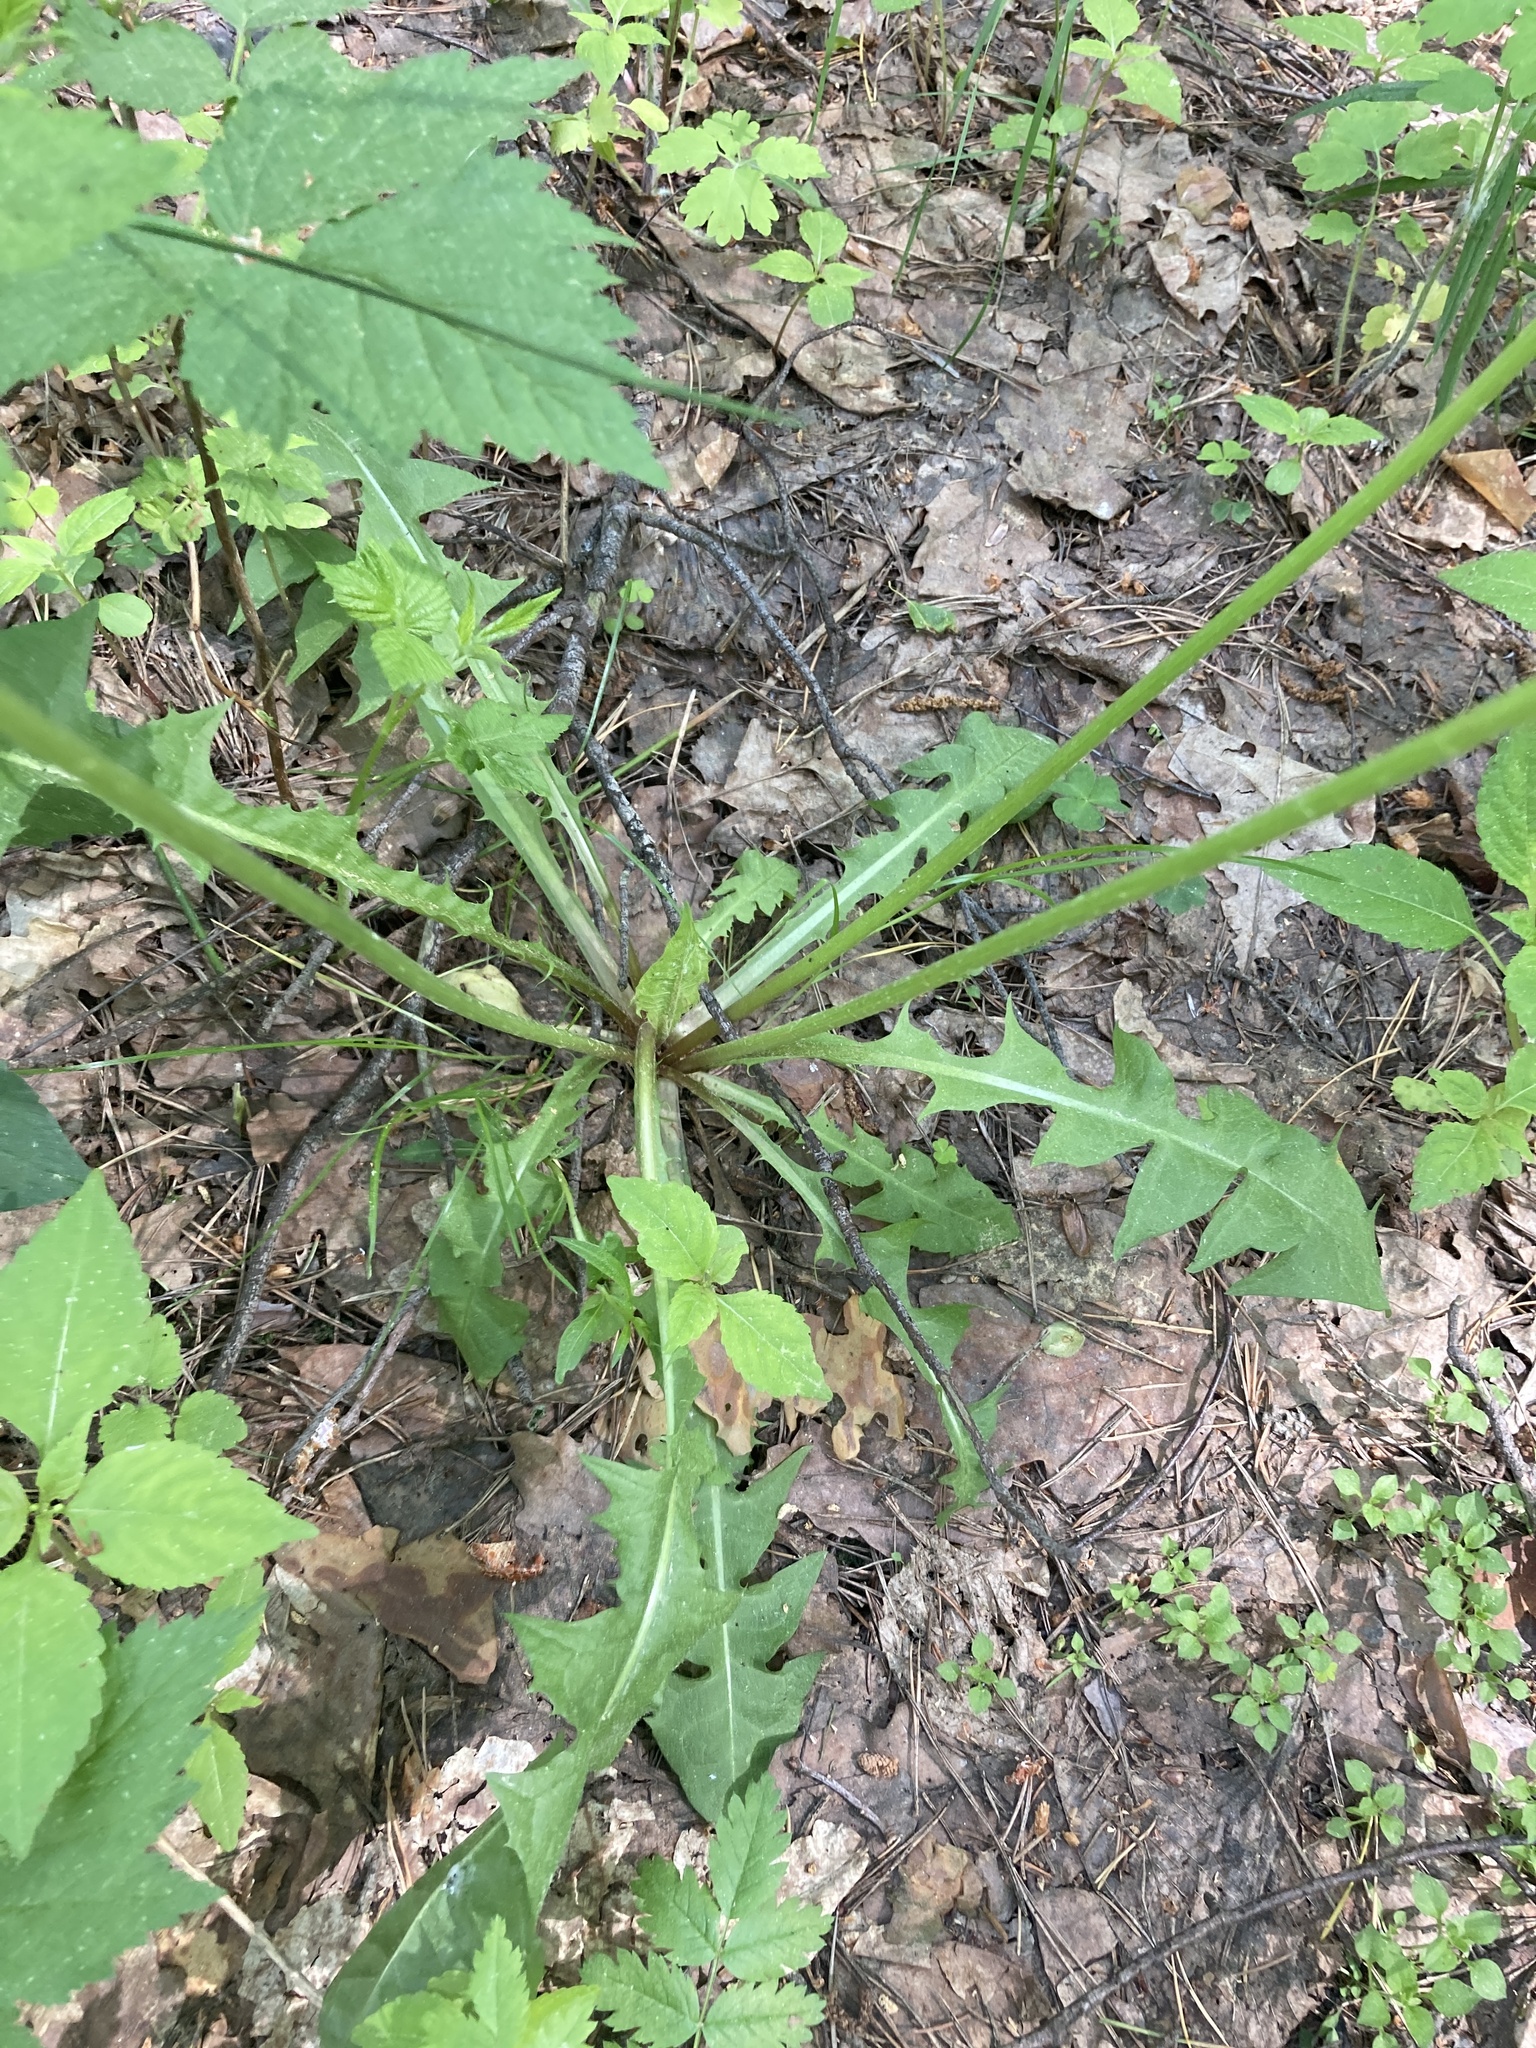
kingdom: Plantae
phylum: Tracheophyta
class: Magnoliopsida
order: Asterales
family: Asteraceae
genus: Taraxacum
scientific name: Taraxacum officinale
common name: Common dandelion
